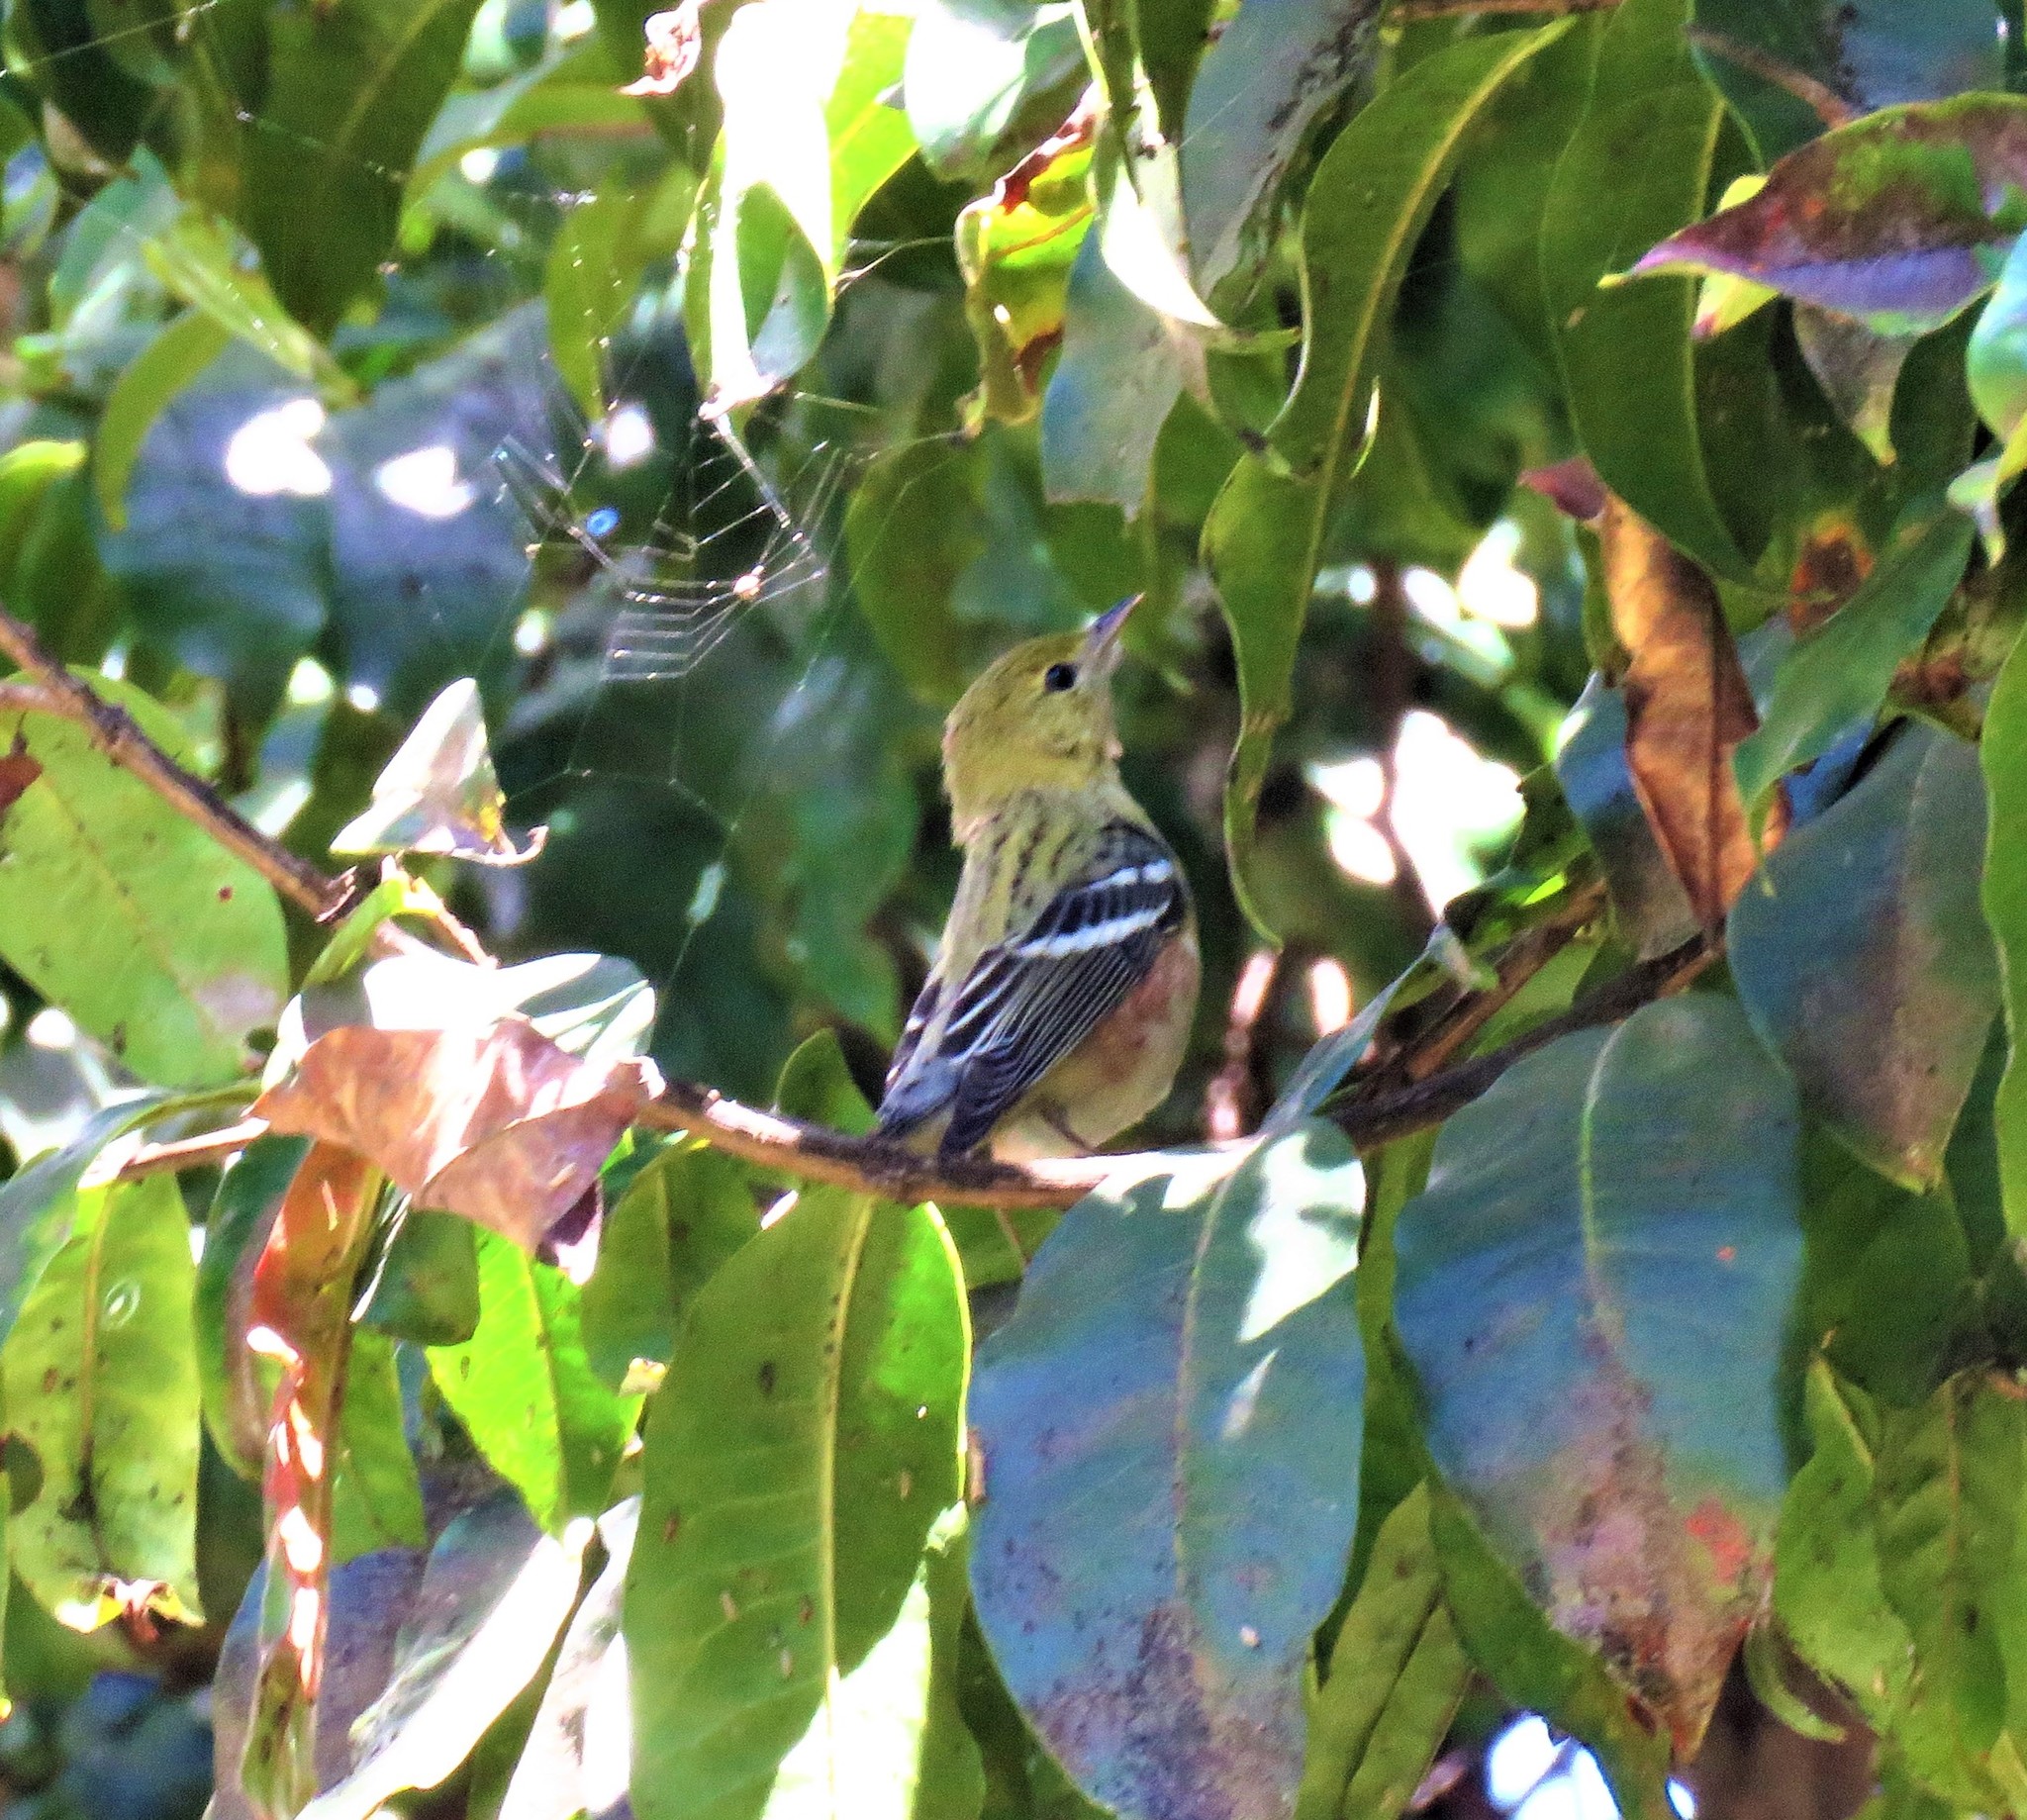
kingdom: Animalia
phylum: Chordata
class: Aves
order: Passeriformes
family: Parulidae
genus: Setophaga
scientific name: Setophaga castanea
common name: Bay-breasted warbler
